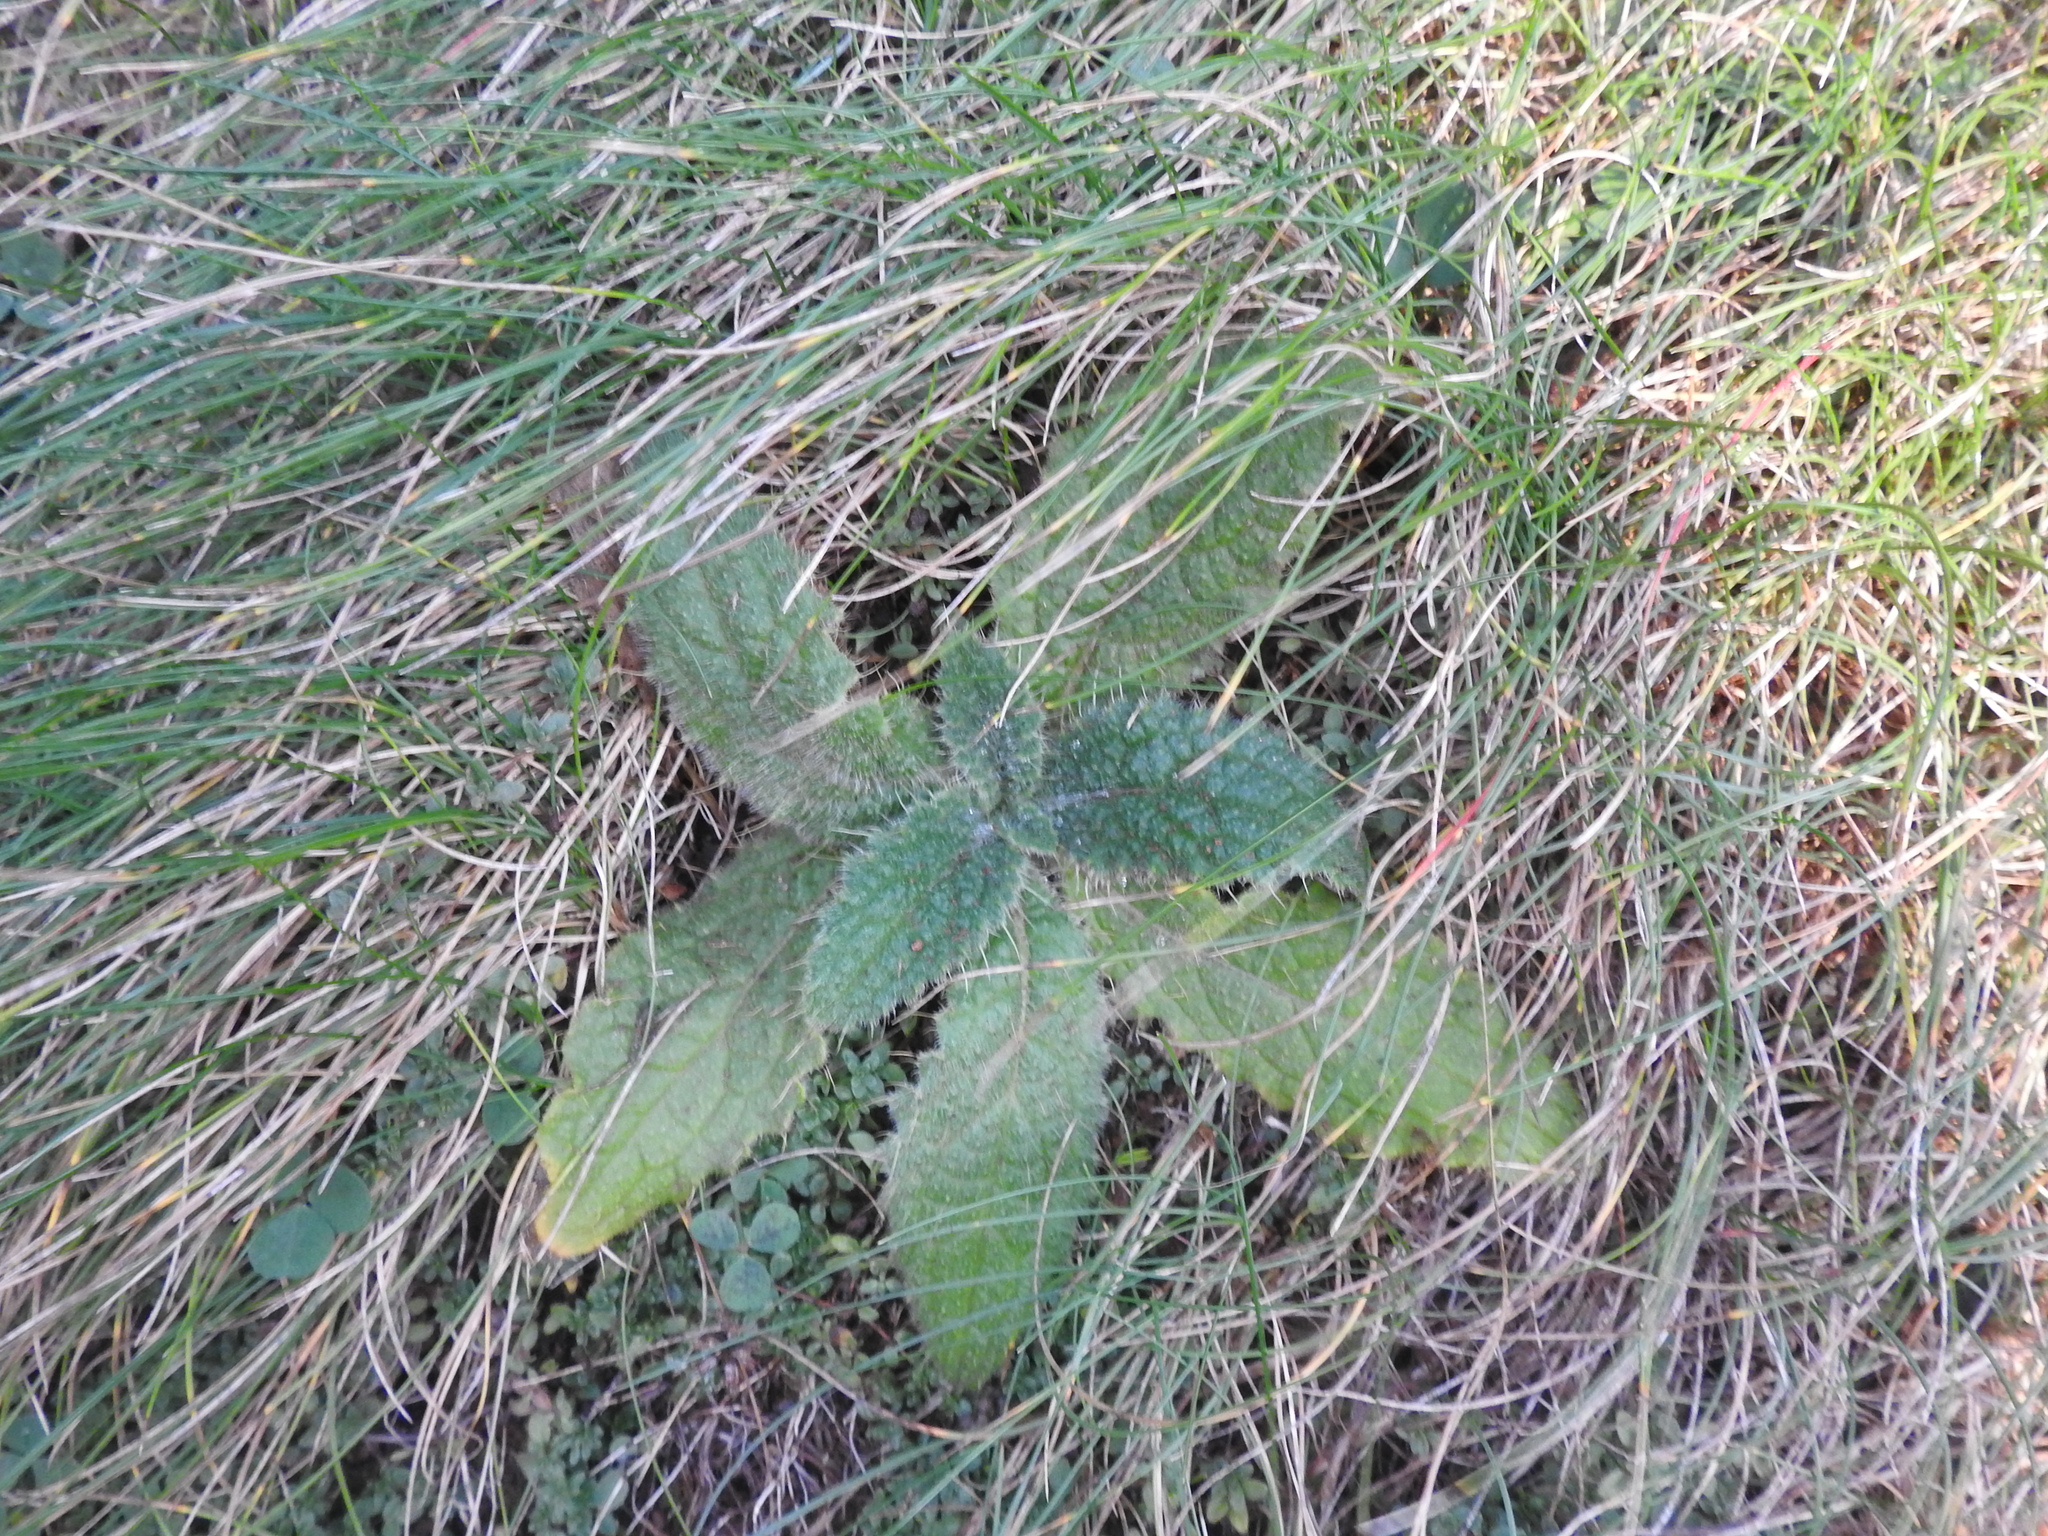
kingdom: Plantae
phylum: Tracheophyta
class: Magnoliopsida
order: Asterales
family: Asteraceae
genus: Cirsium
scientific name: Cirsium vulgare
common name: Bull thistle
